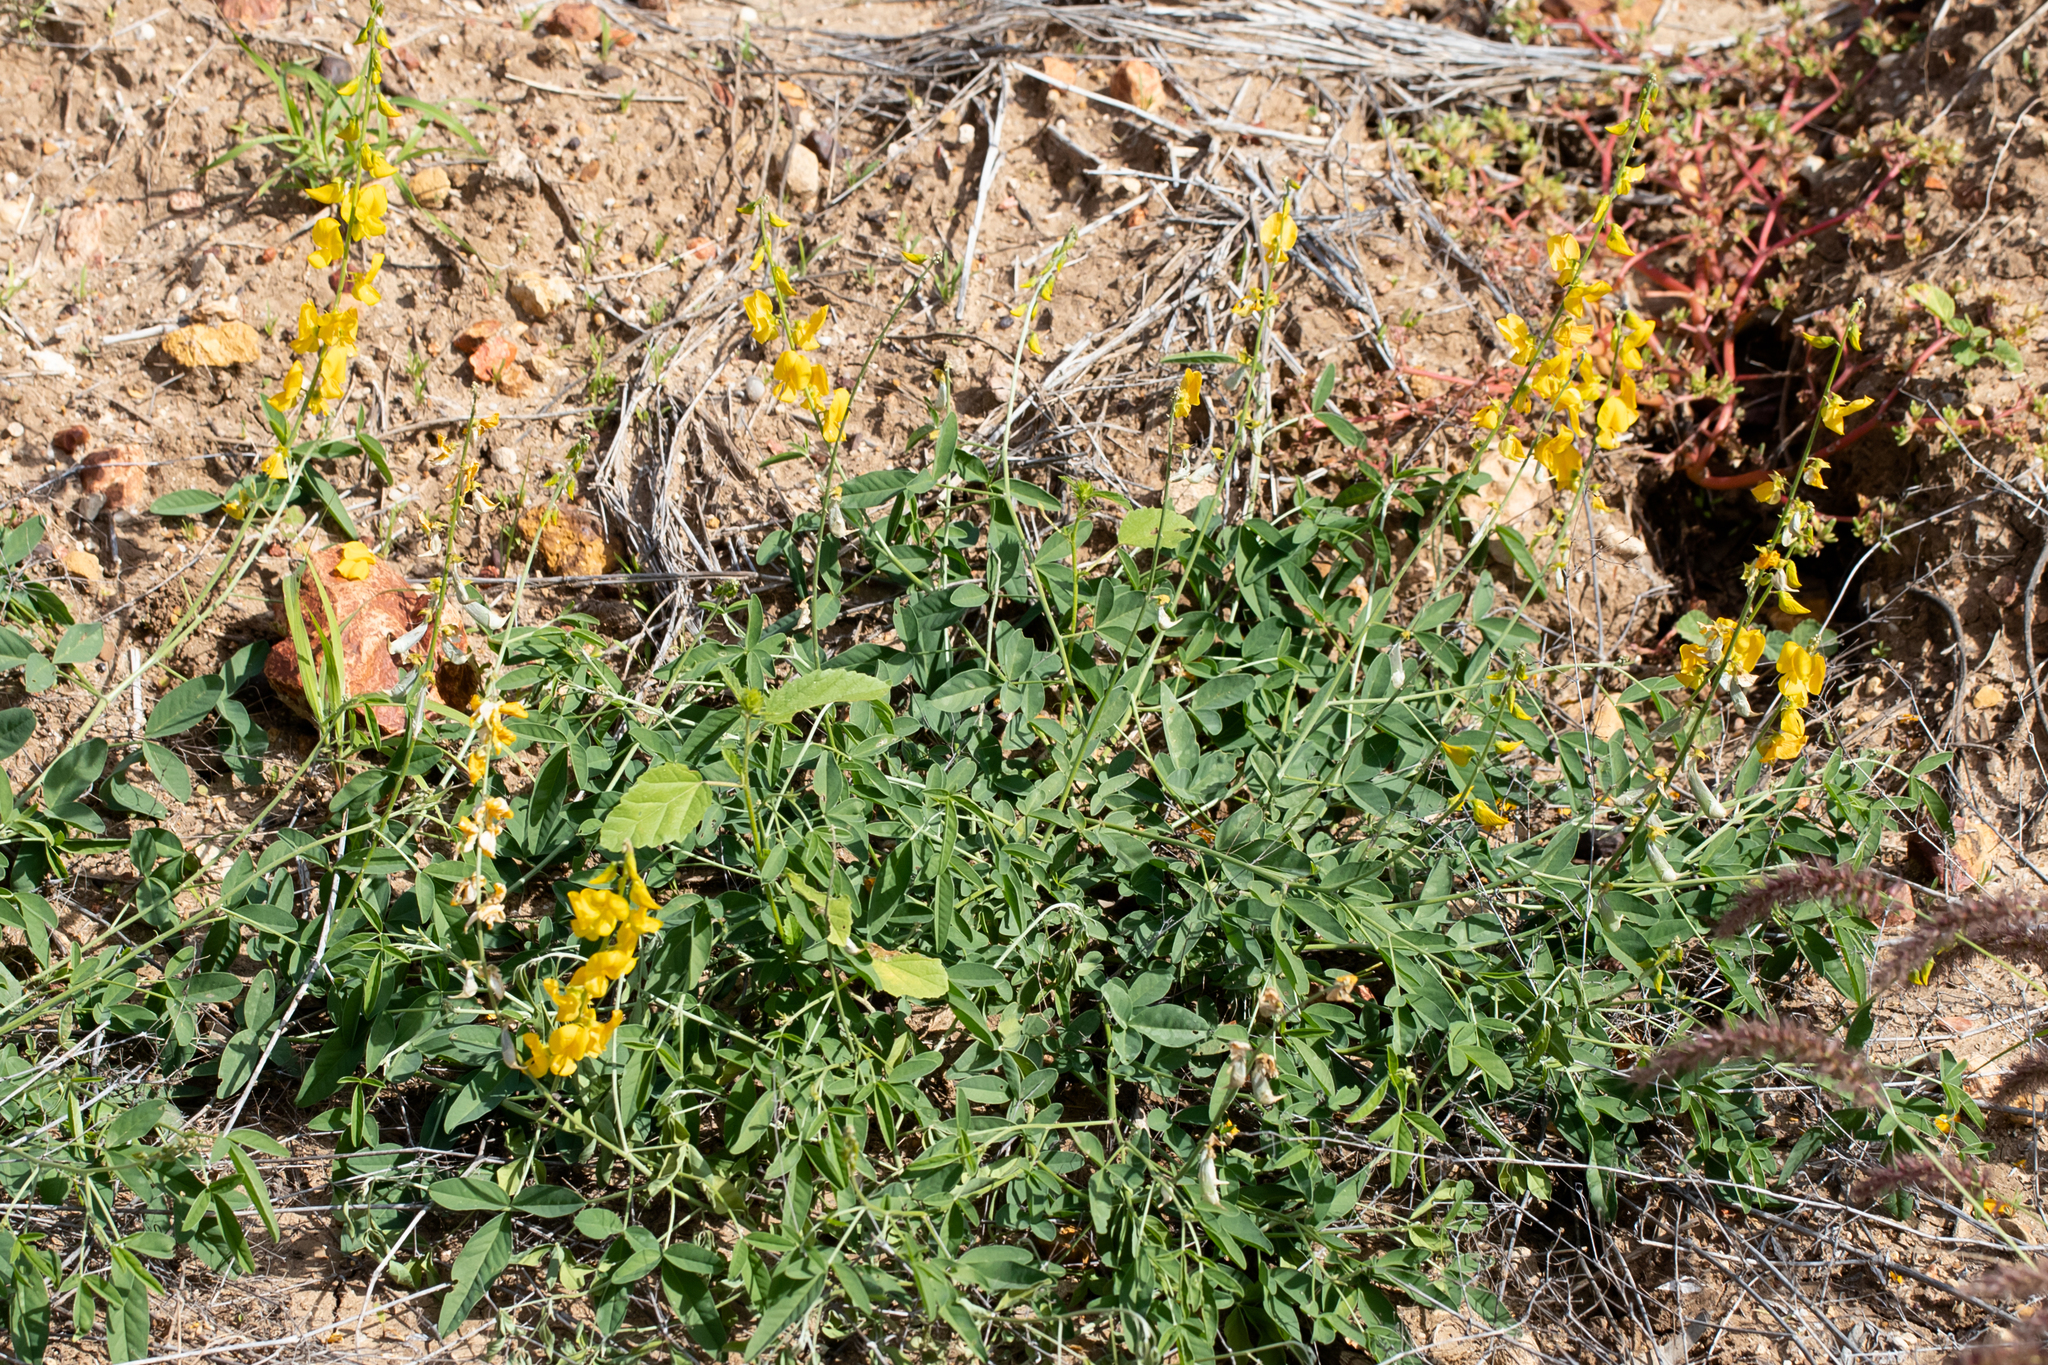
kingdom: Plantae
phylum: Tracheophyta
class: Magnoliopsida
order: Fabales
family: Fabaceae
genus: Crotalaria
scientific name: Crotalaria dissitiflora
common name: Grey rattlepod
